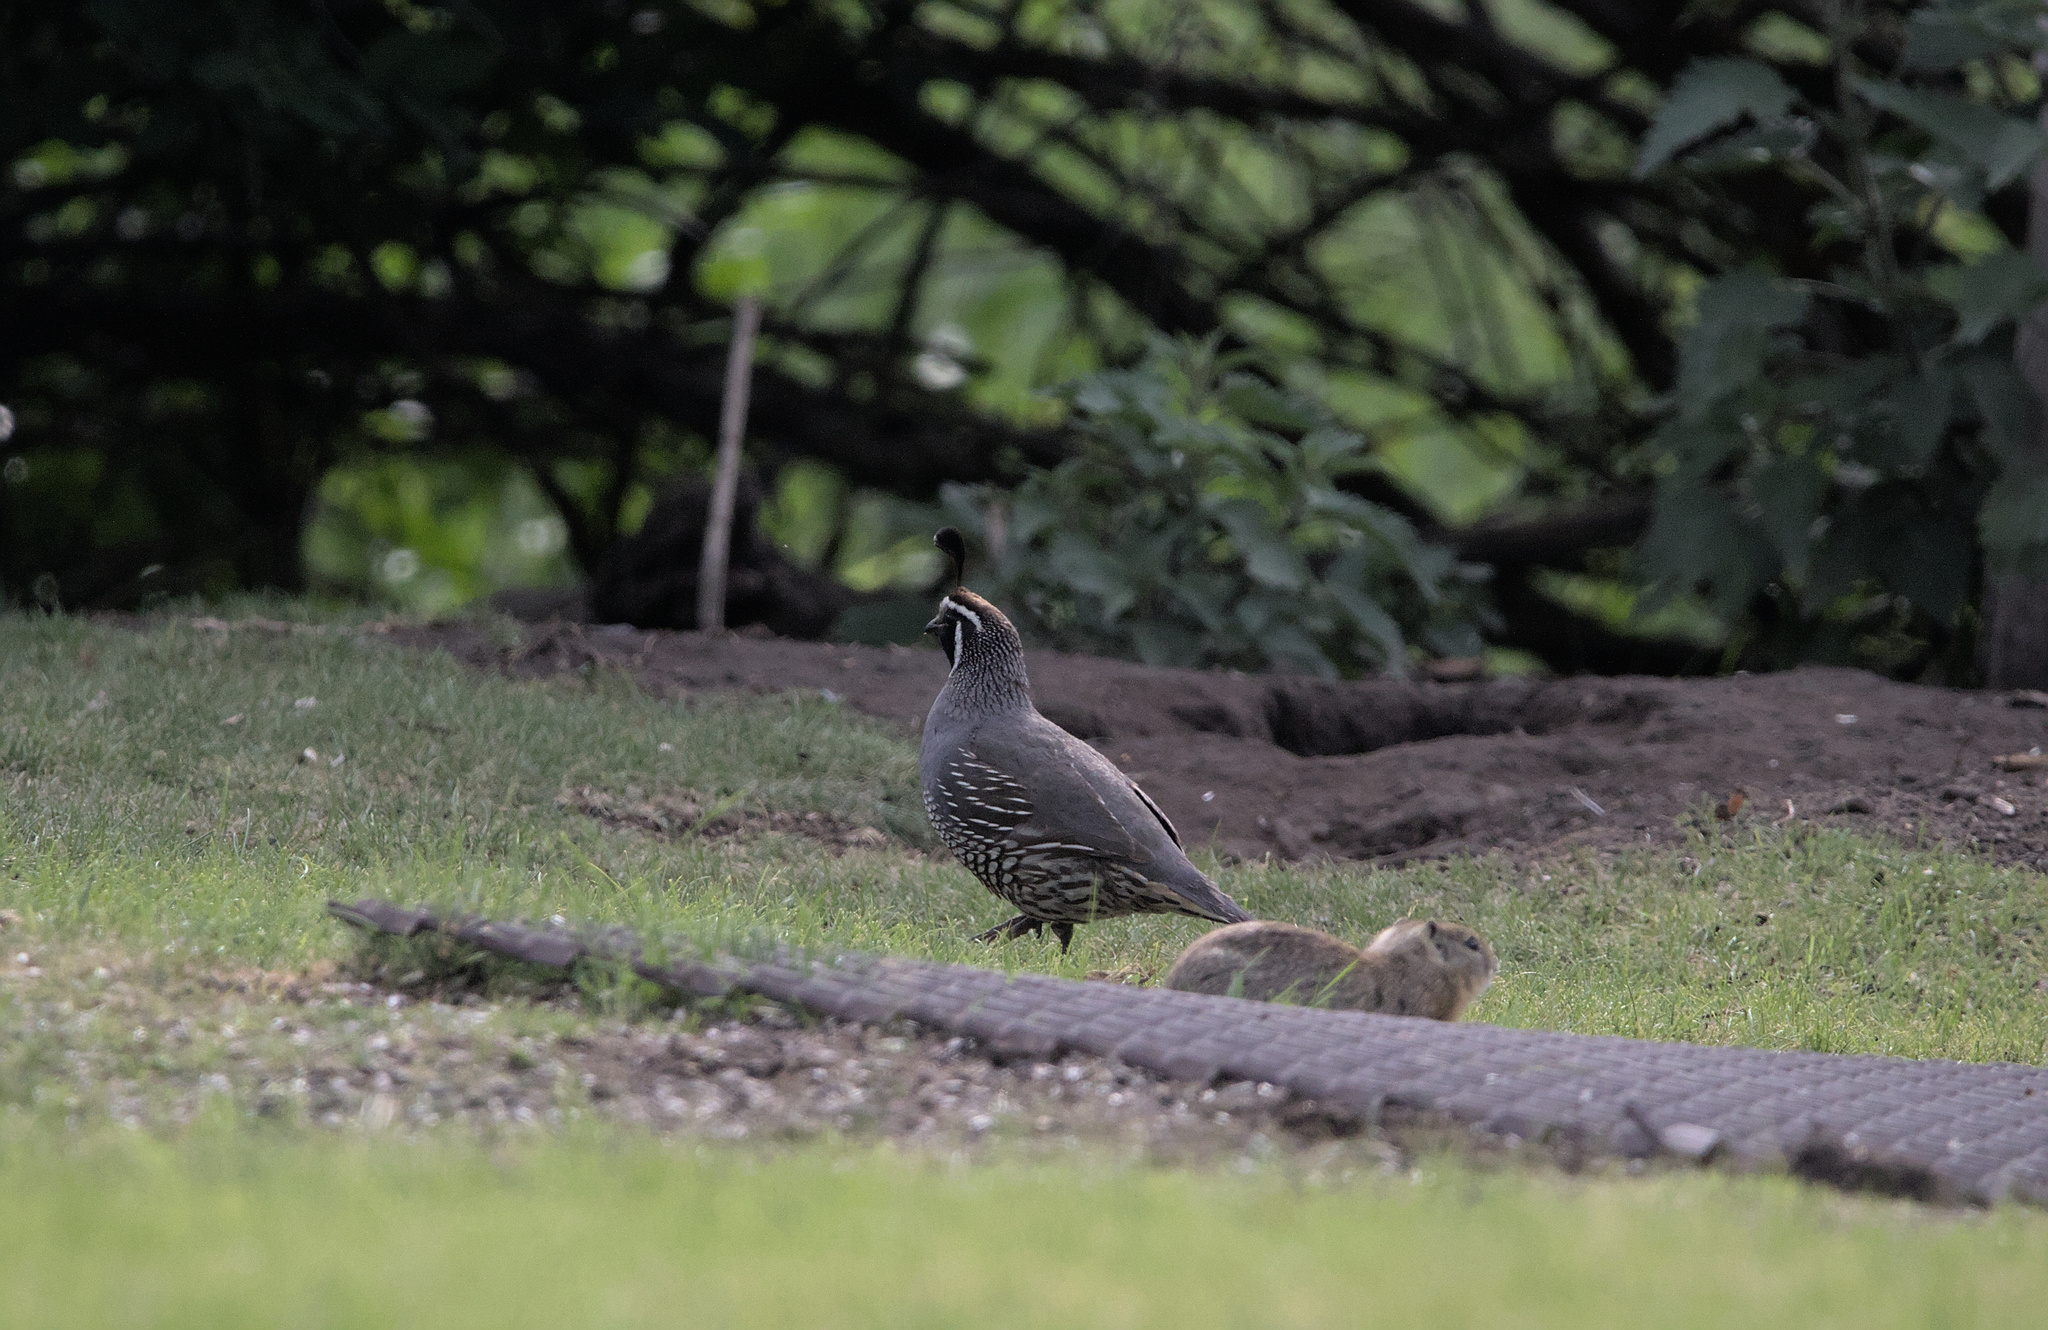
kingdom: Animalia
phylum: Chordata
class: Aves
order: Galliformes
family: Odontophoridae
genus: Callipepla
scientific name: Callipepla californica
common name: California quail
